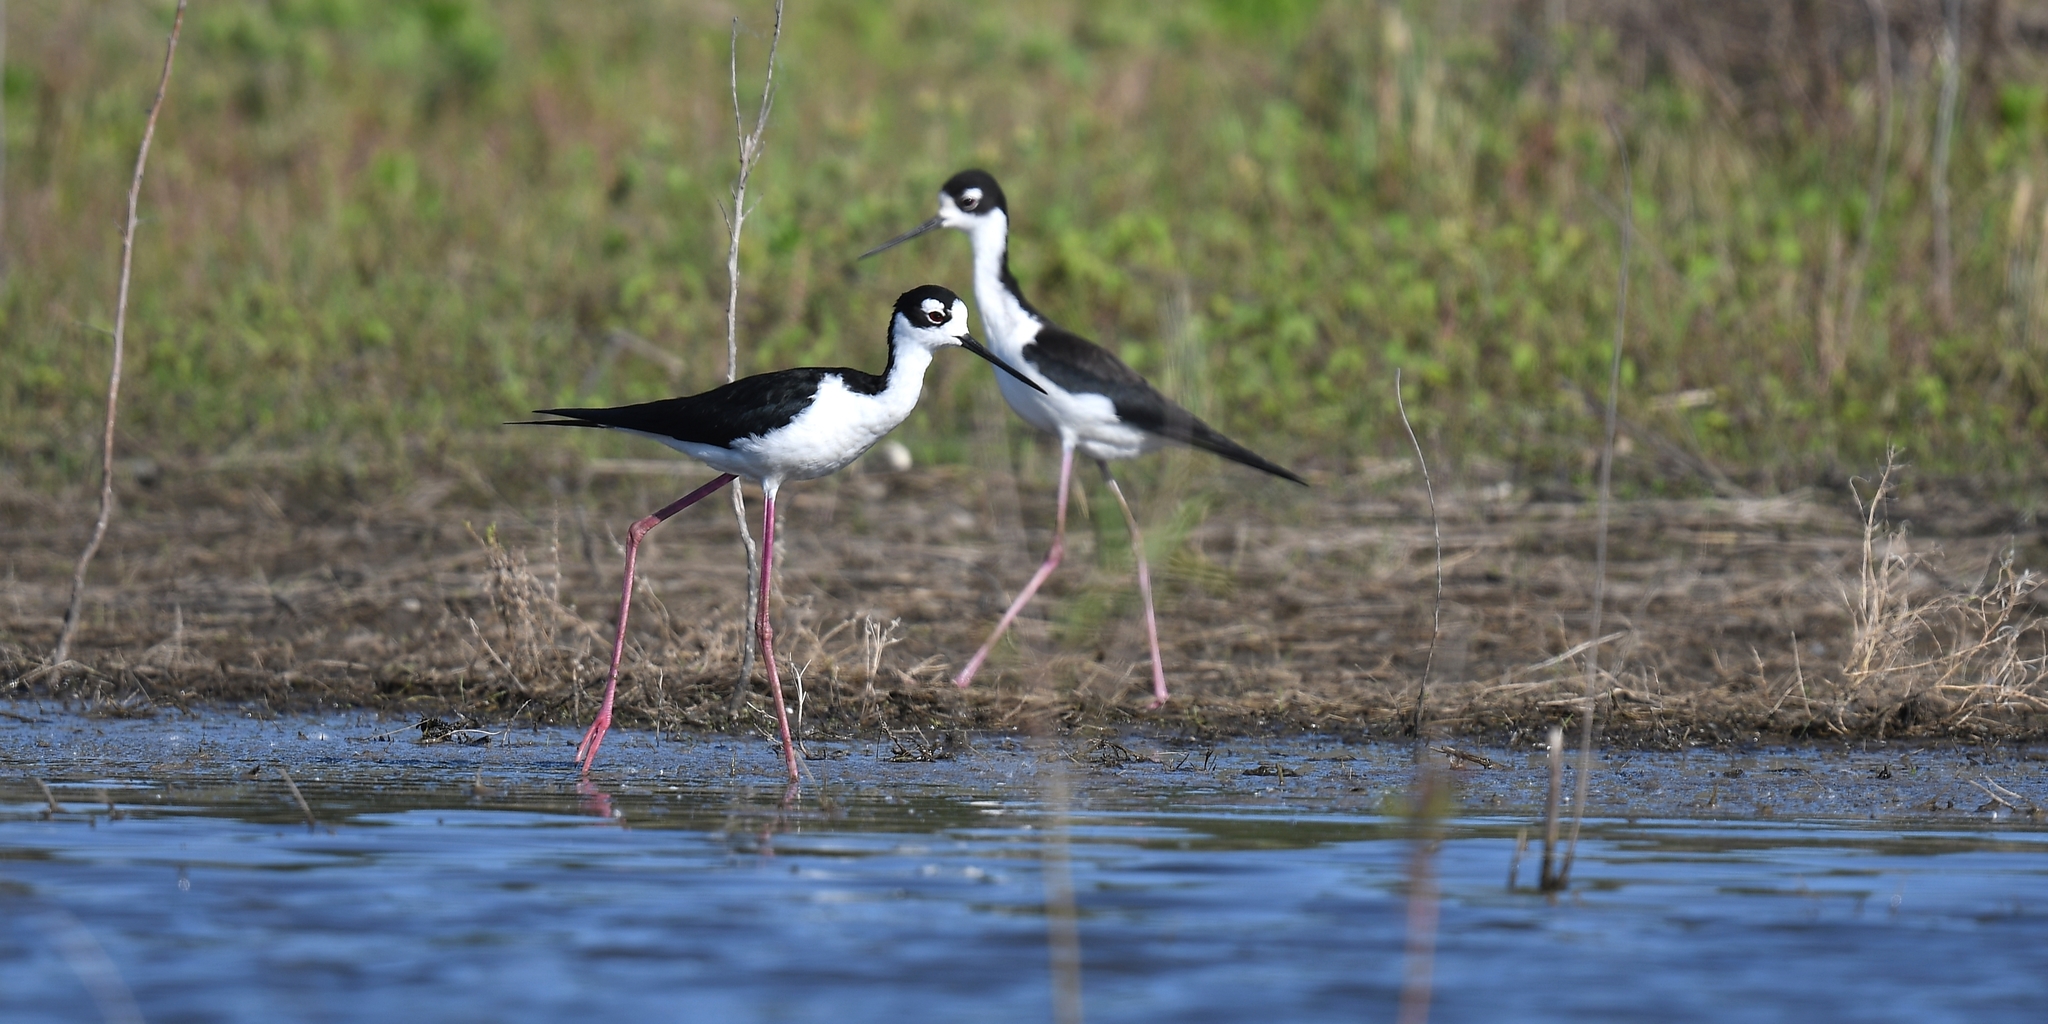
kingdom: Animalia
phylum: Chordata
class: Aves
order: Charadriiformes
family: Recurvirostridae
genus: Himantopus
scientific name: Himantopus mexicanus
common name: Black-necked stilt
